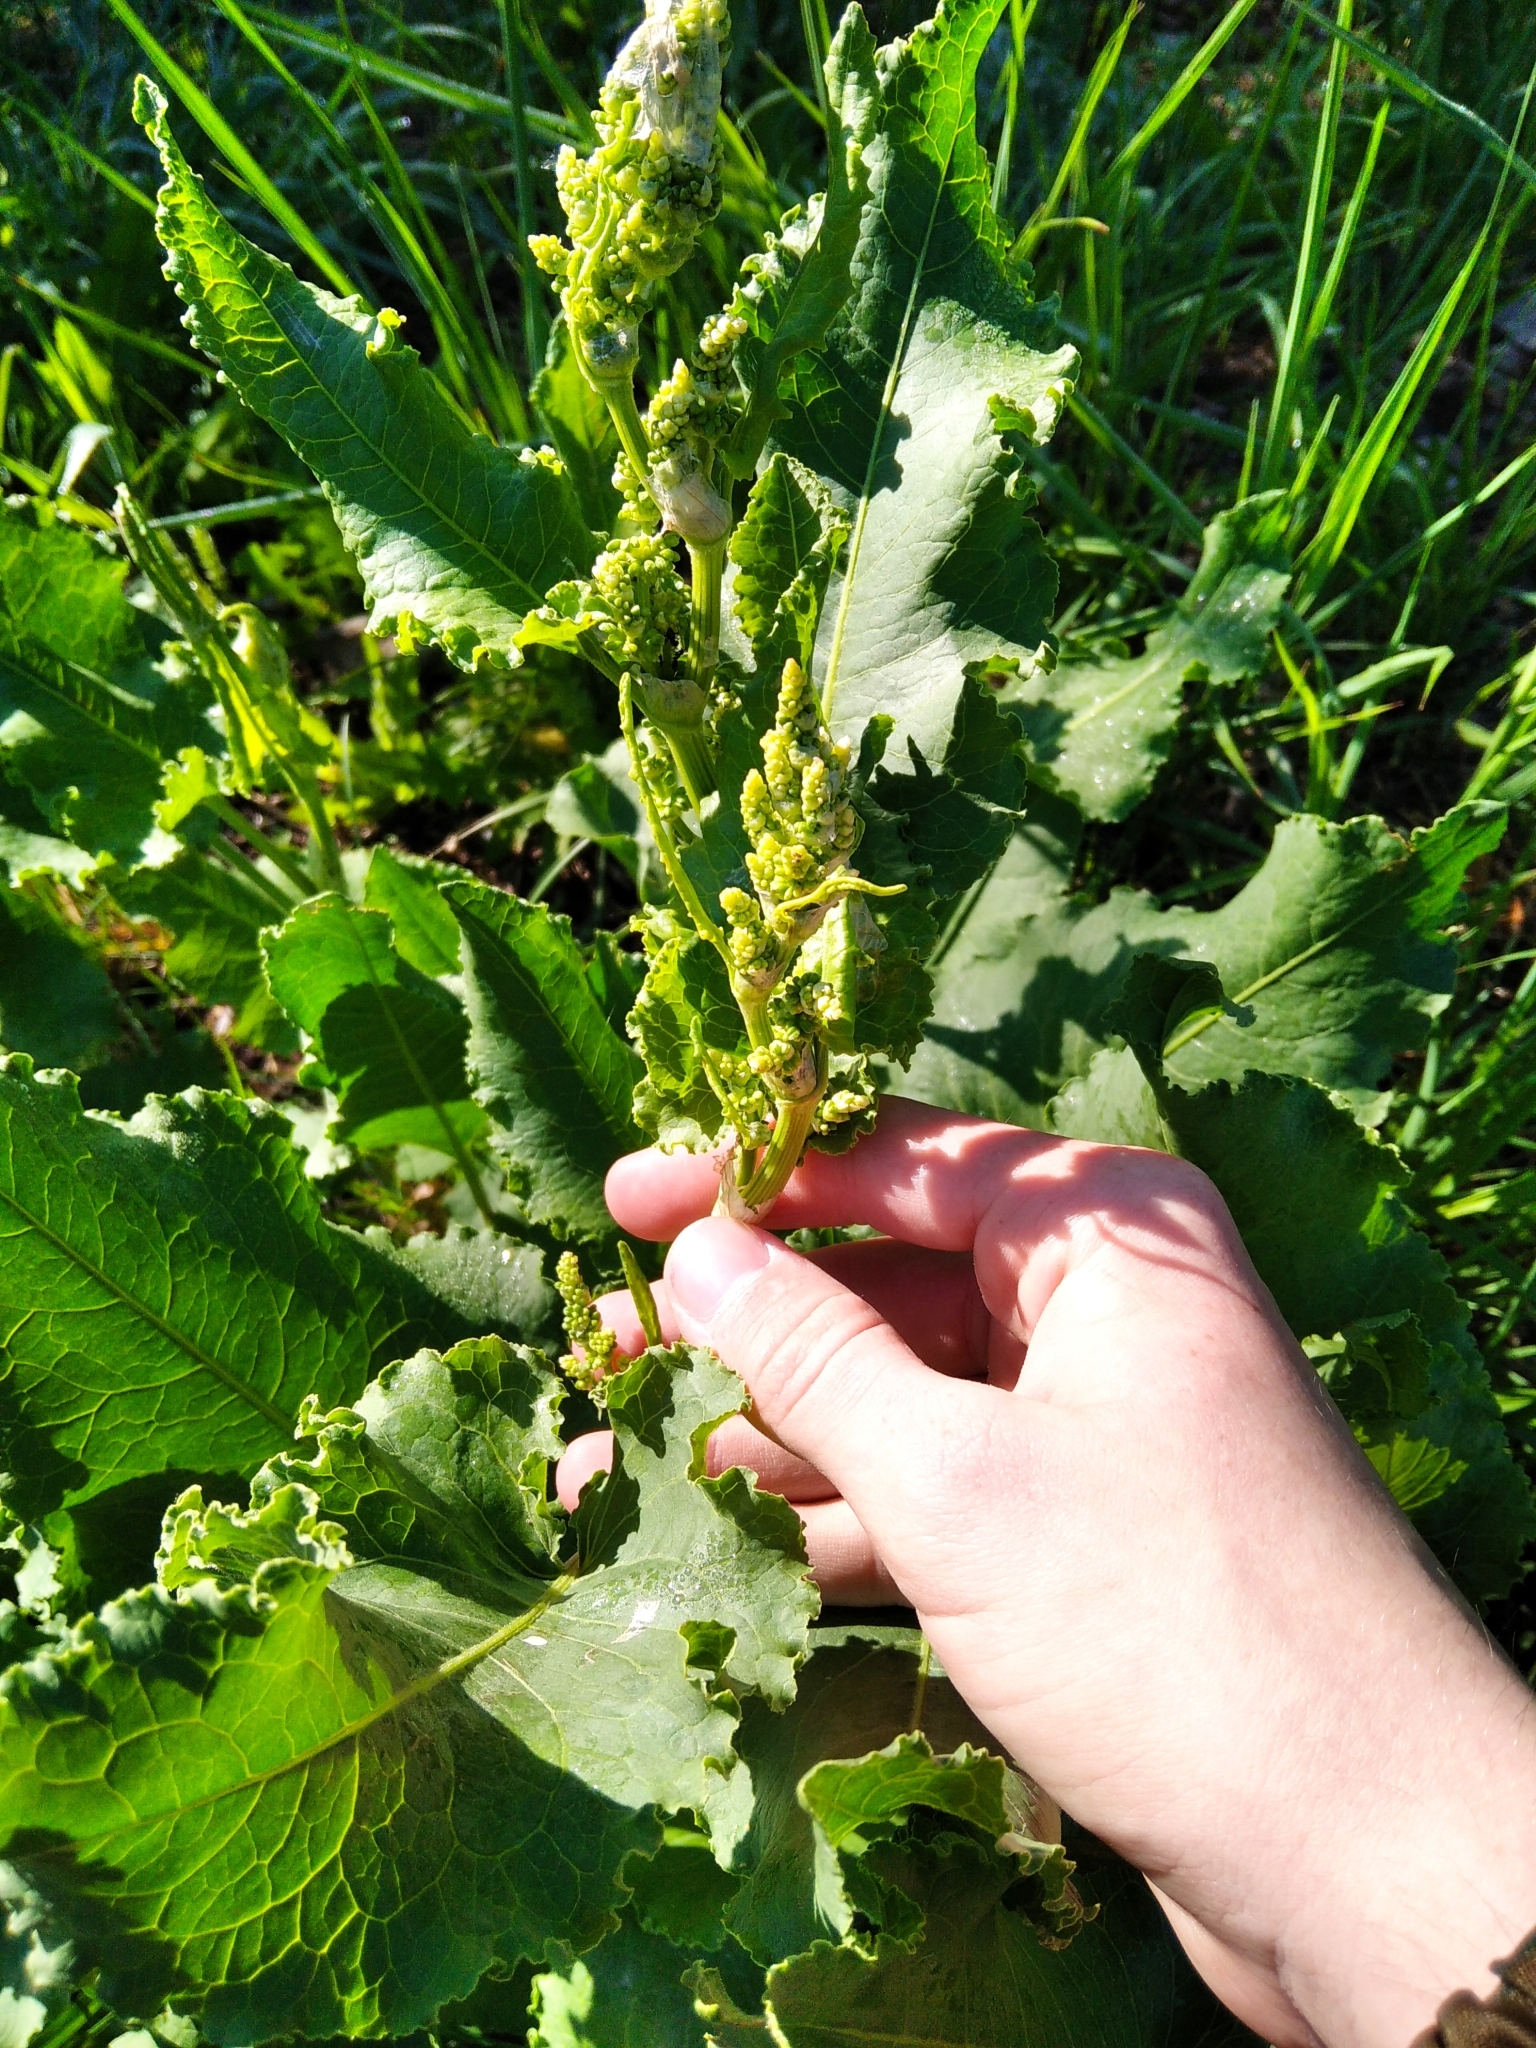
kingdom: Plantae
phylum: Tracheophyta
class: Magnoliopsida
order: Caryophyllales
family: Polygonaceae
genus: Rumex
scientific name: Rumex confertus
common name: Russian dock
